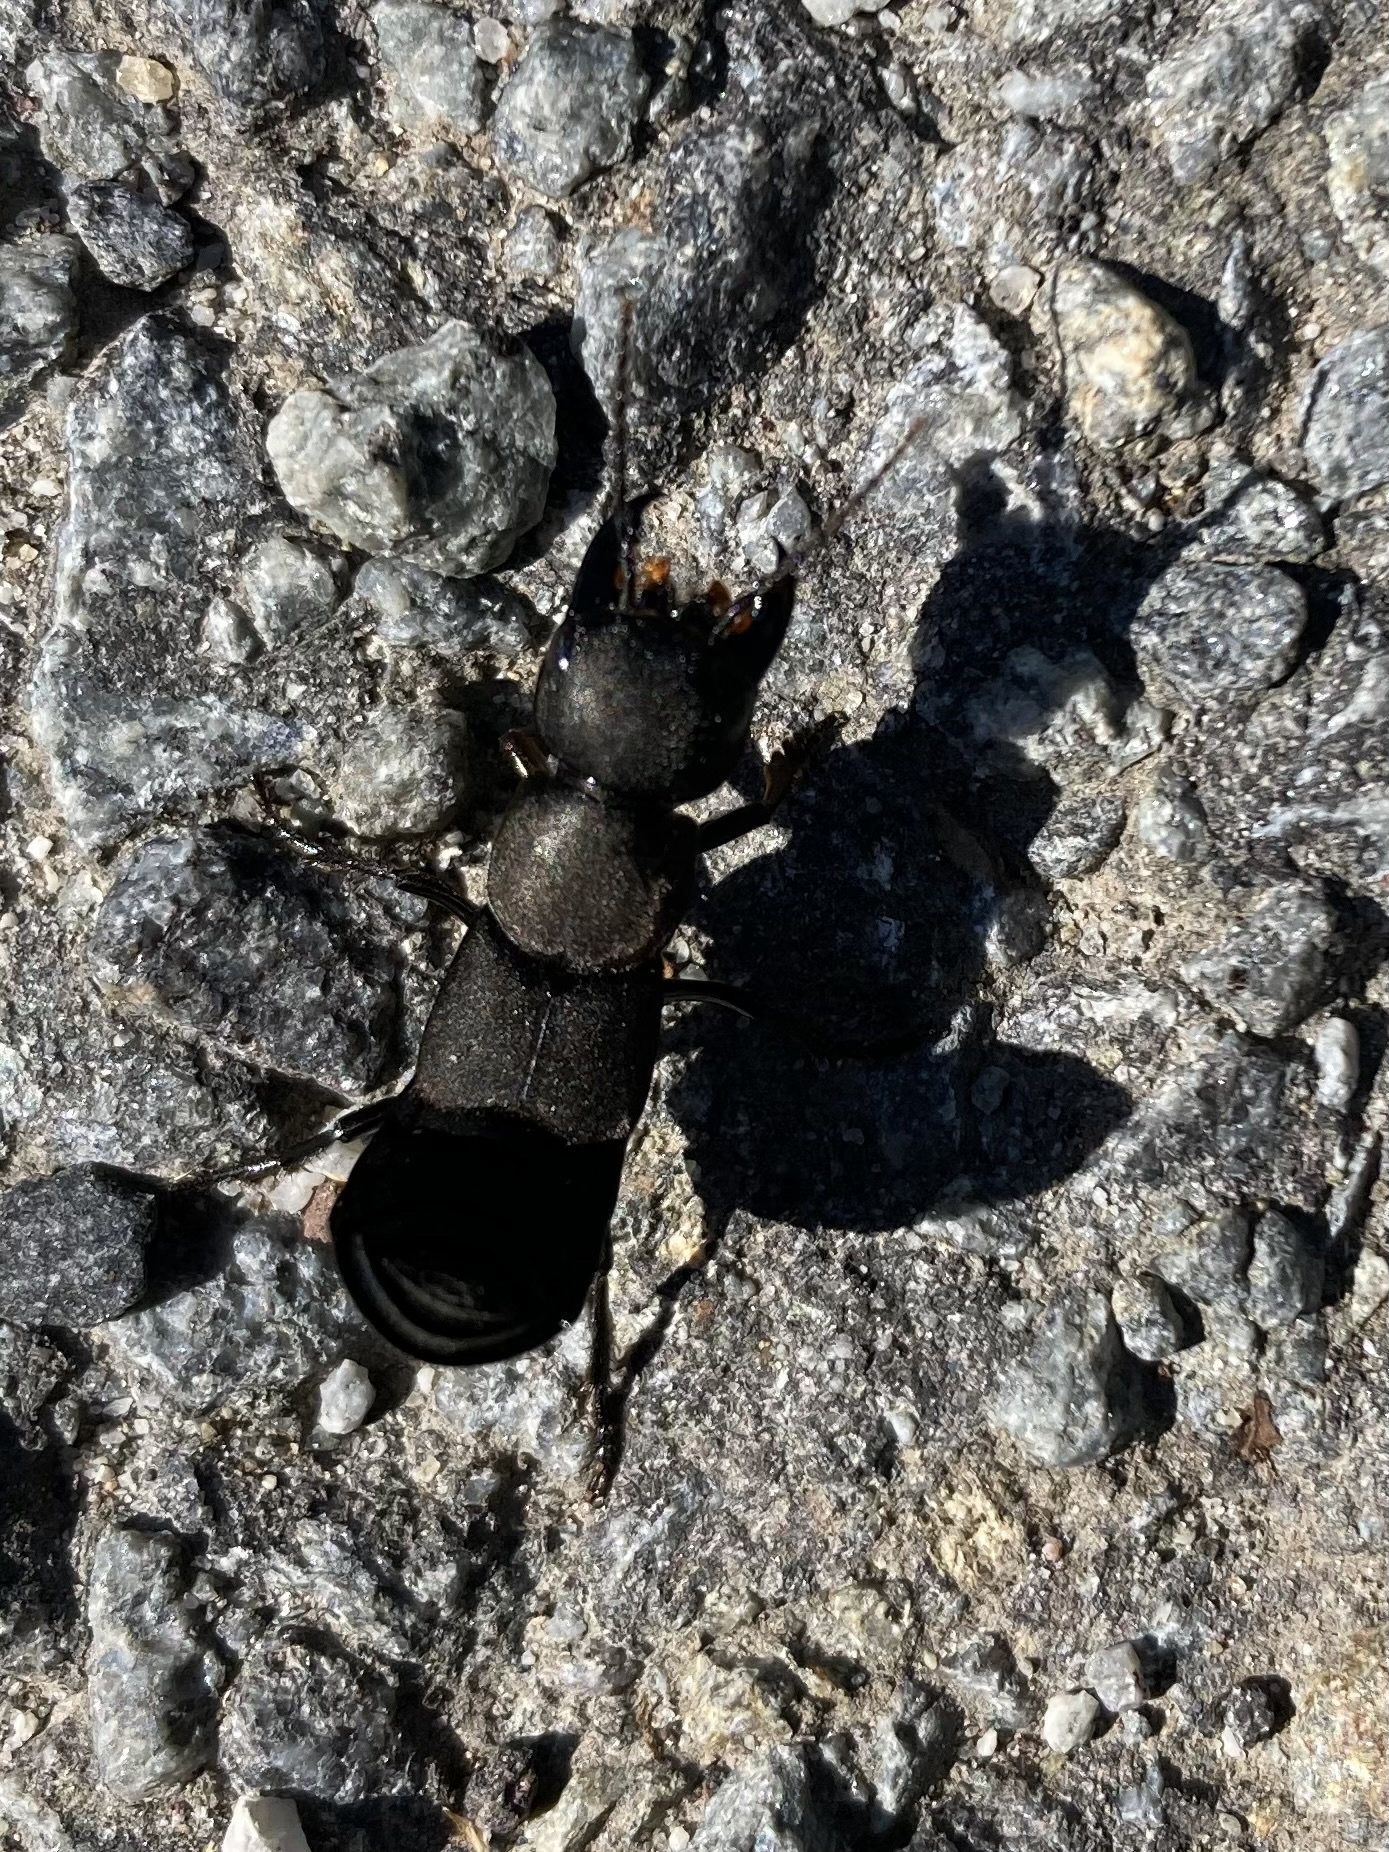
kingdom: Animalia
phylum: Arthropoda
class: Insecta
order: Coleoptera
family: Staphylinidae
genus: Ocypus
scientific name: Ocypus olens
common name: Devil's coach-horse
